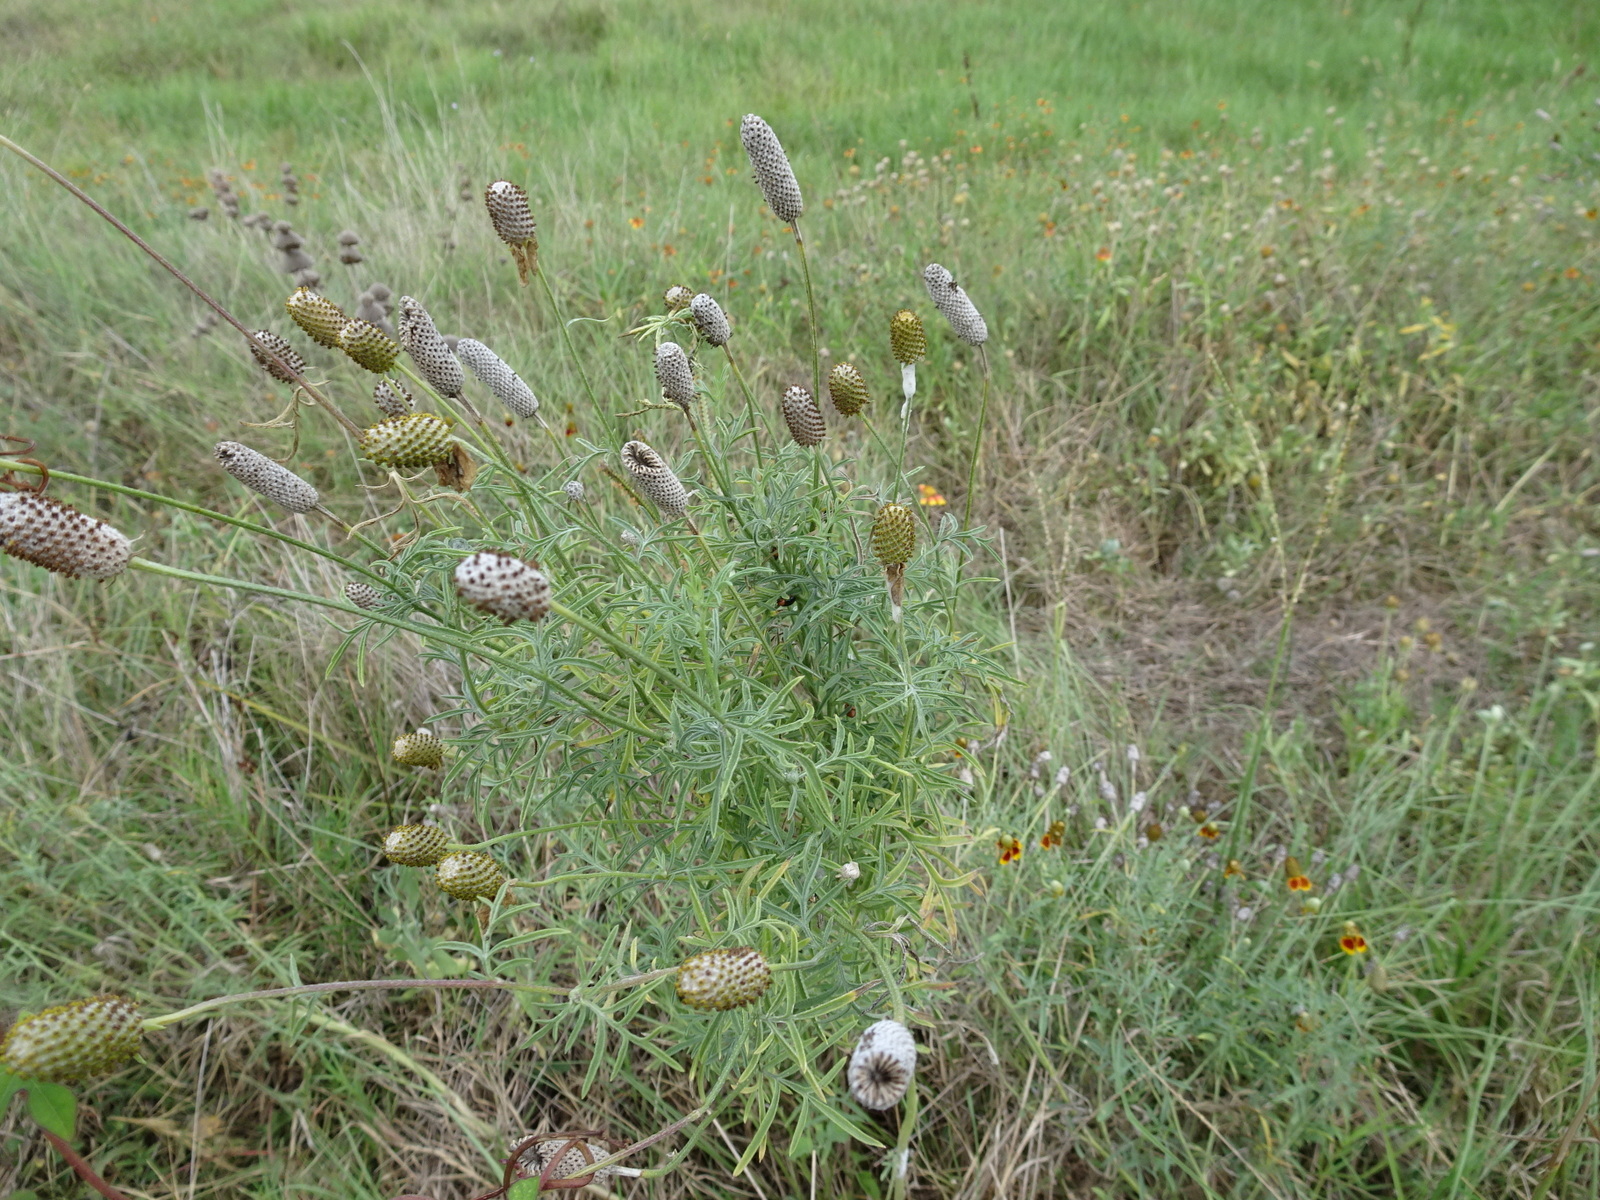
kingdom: Plantae
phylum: Tracheophyta
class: Magnoliopsida
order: Asterales
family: Asteraceae
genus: Ratibida
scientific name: Ratibida columnifera
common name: Prairie coneflower
